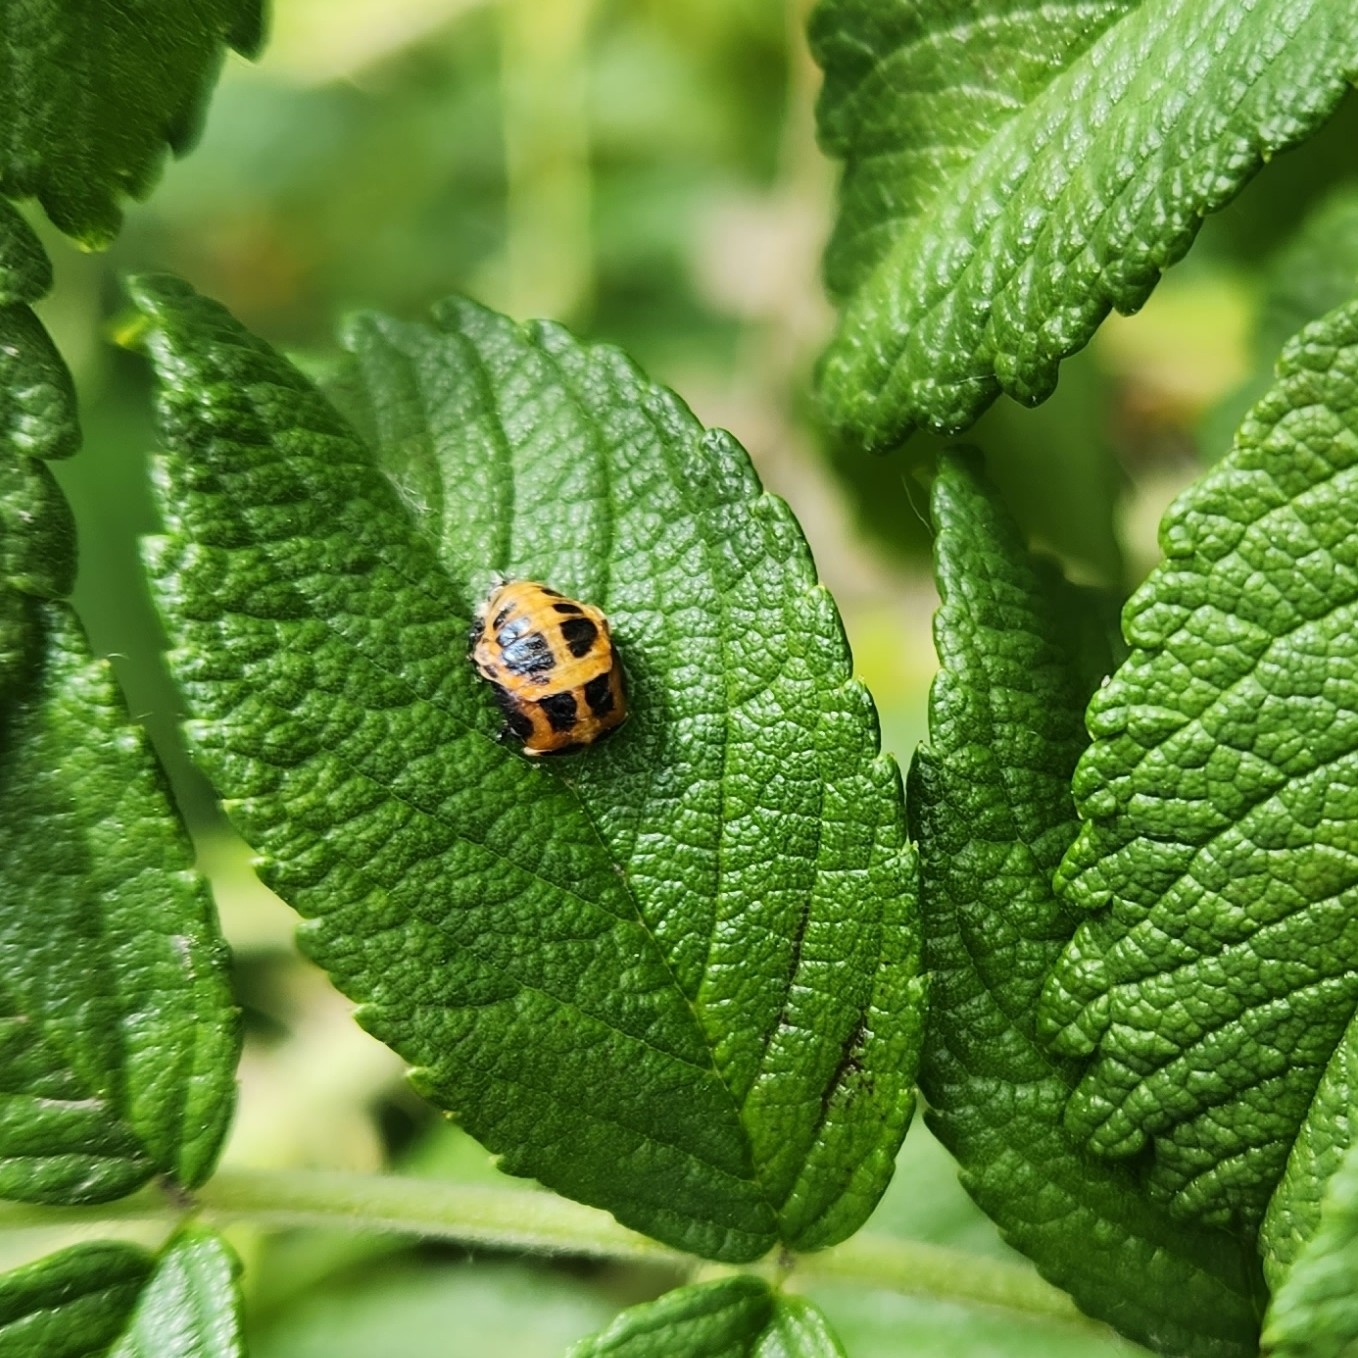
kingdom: Animalia
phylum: Arthropoda
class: Insecta
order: Coleoptera
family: Coccinellidae
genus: Harmonia
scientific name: Harmonia axyridis
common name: Harlequin ladybird
